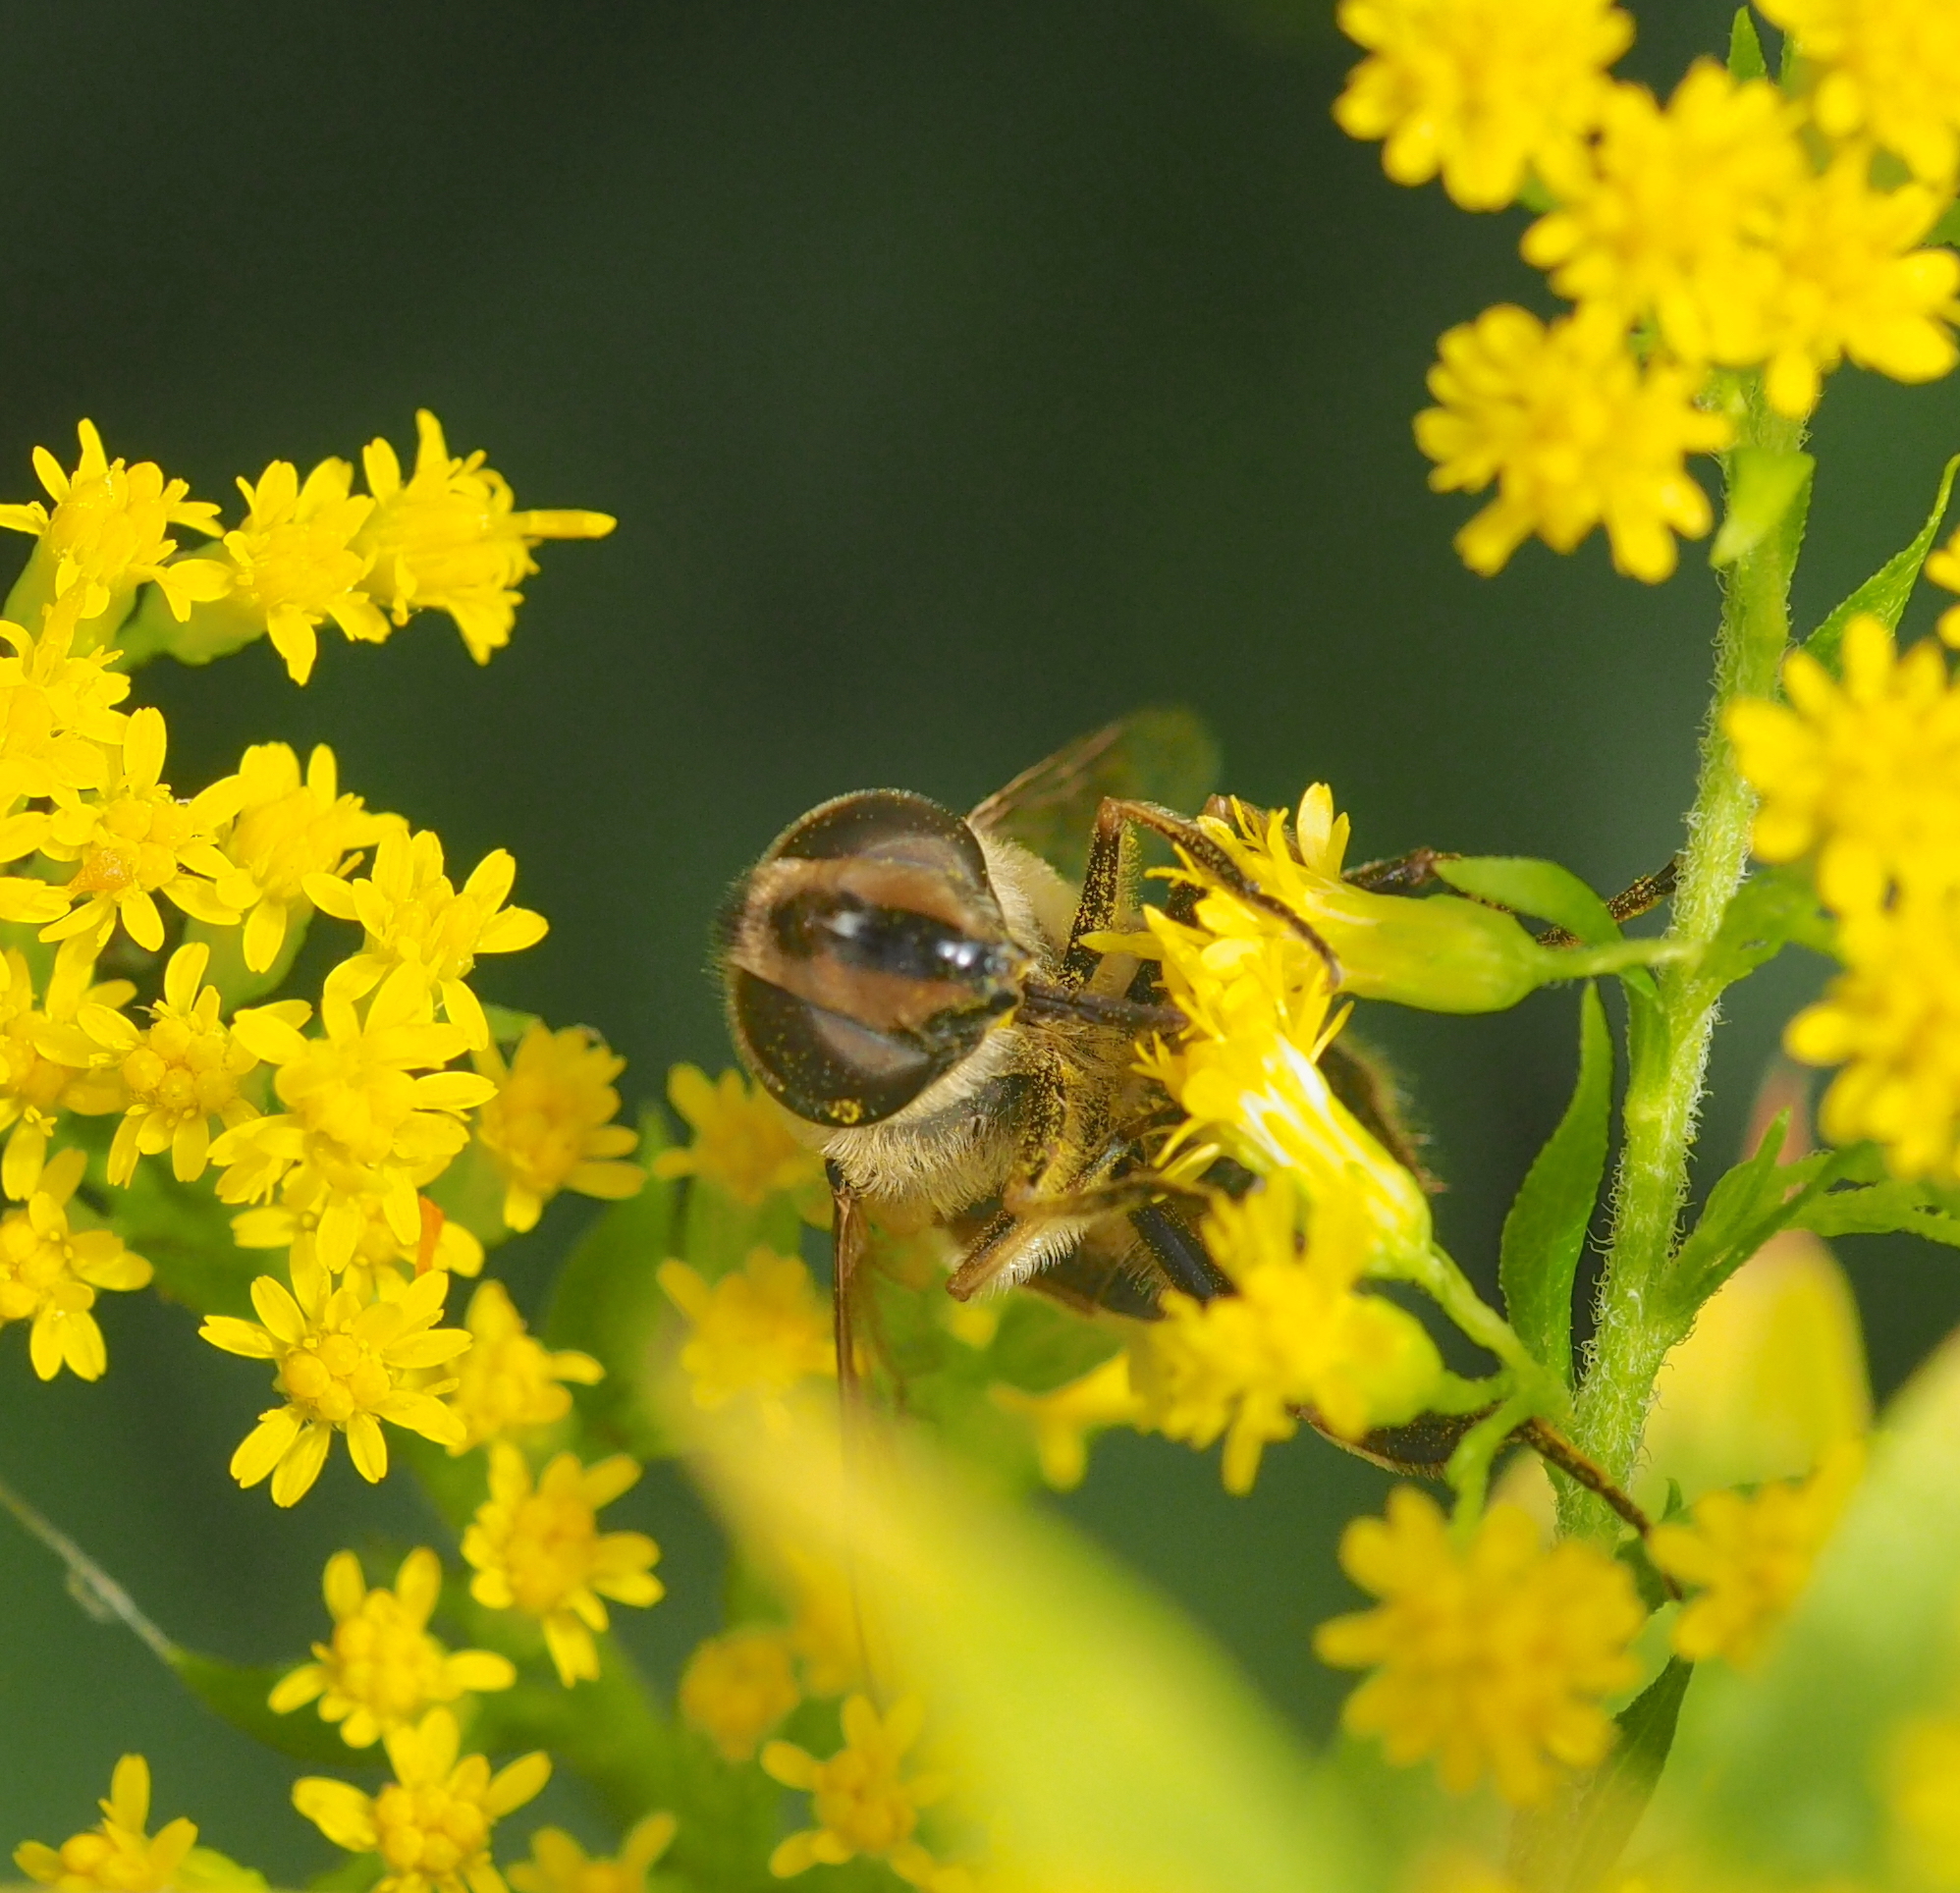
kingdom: Animalia
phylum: Arthropoda
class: Insecta
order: Diptera
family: Syrphidae
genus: Eristalis
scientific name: Eristalis tenax
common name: Drone fly
